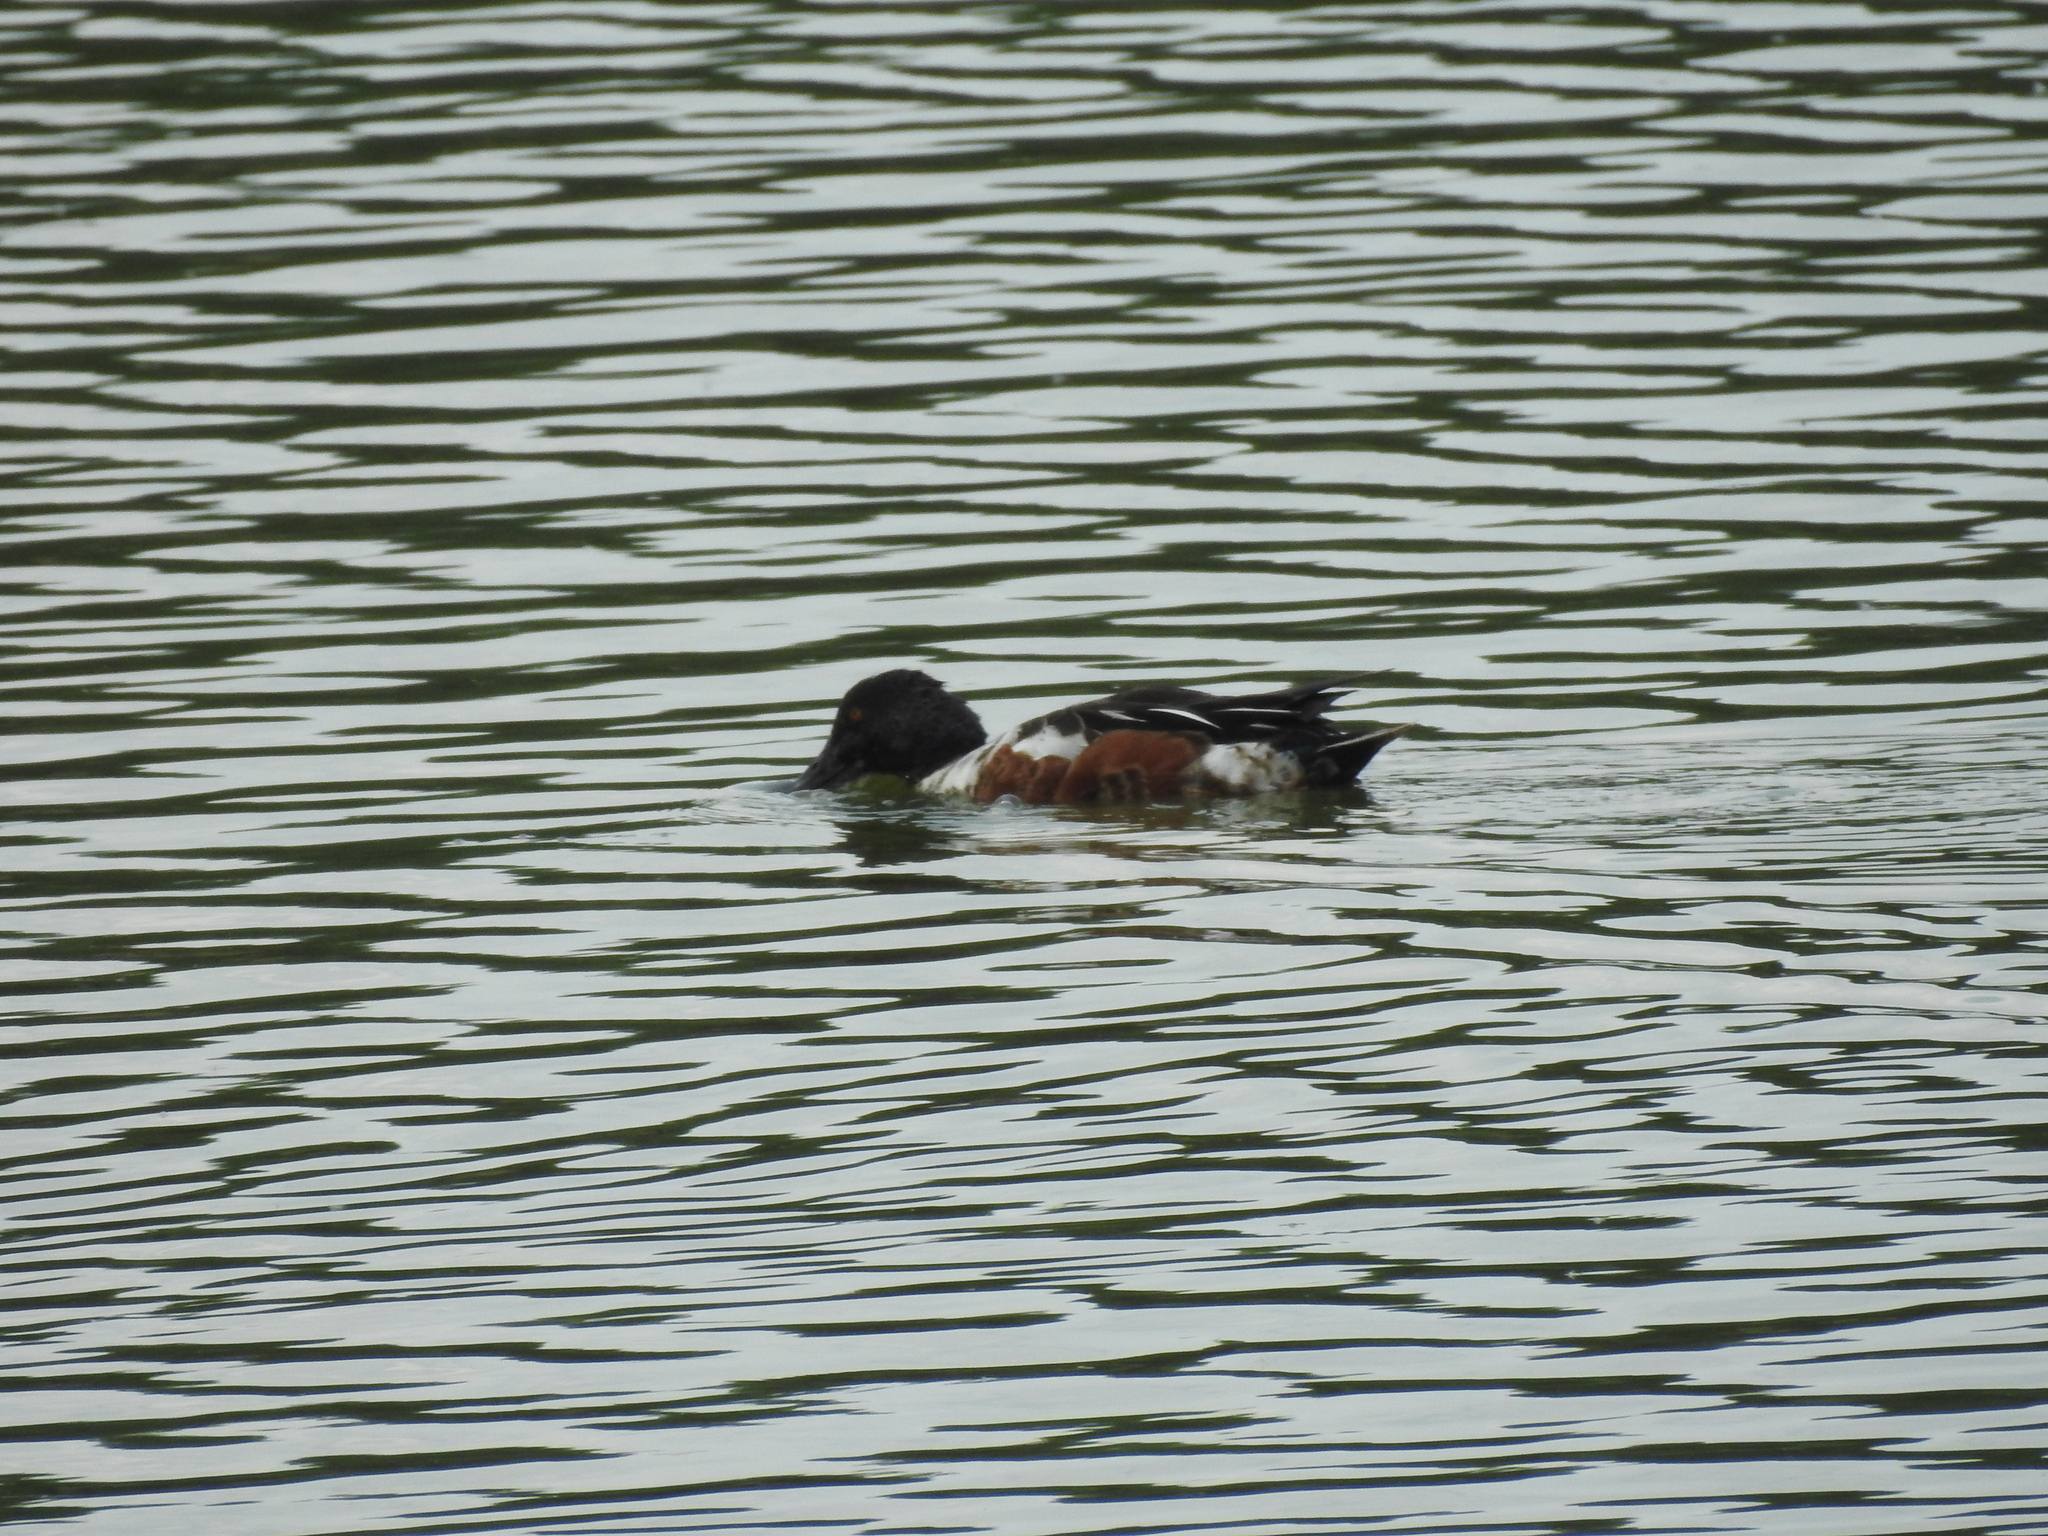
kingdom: Animalia
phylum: Chordata
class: Aves
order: Anseriformes
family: Anatidae
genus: Spatula
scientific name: Spatula clypeata
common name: Northern shoveler
